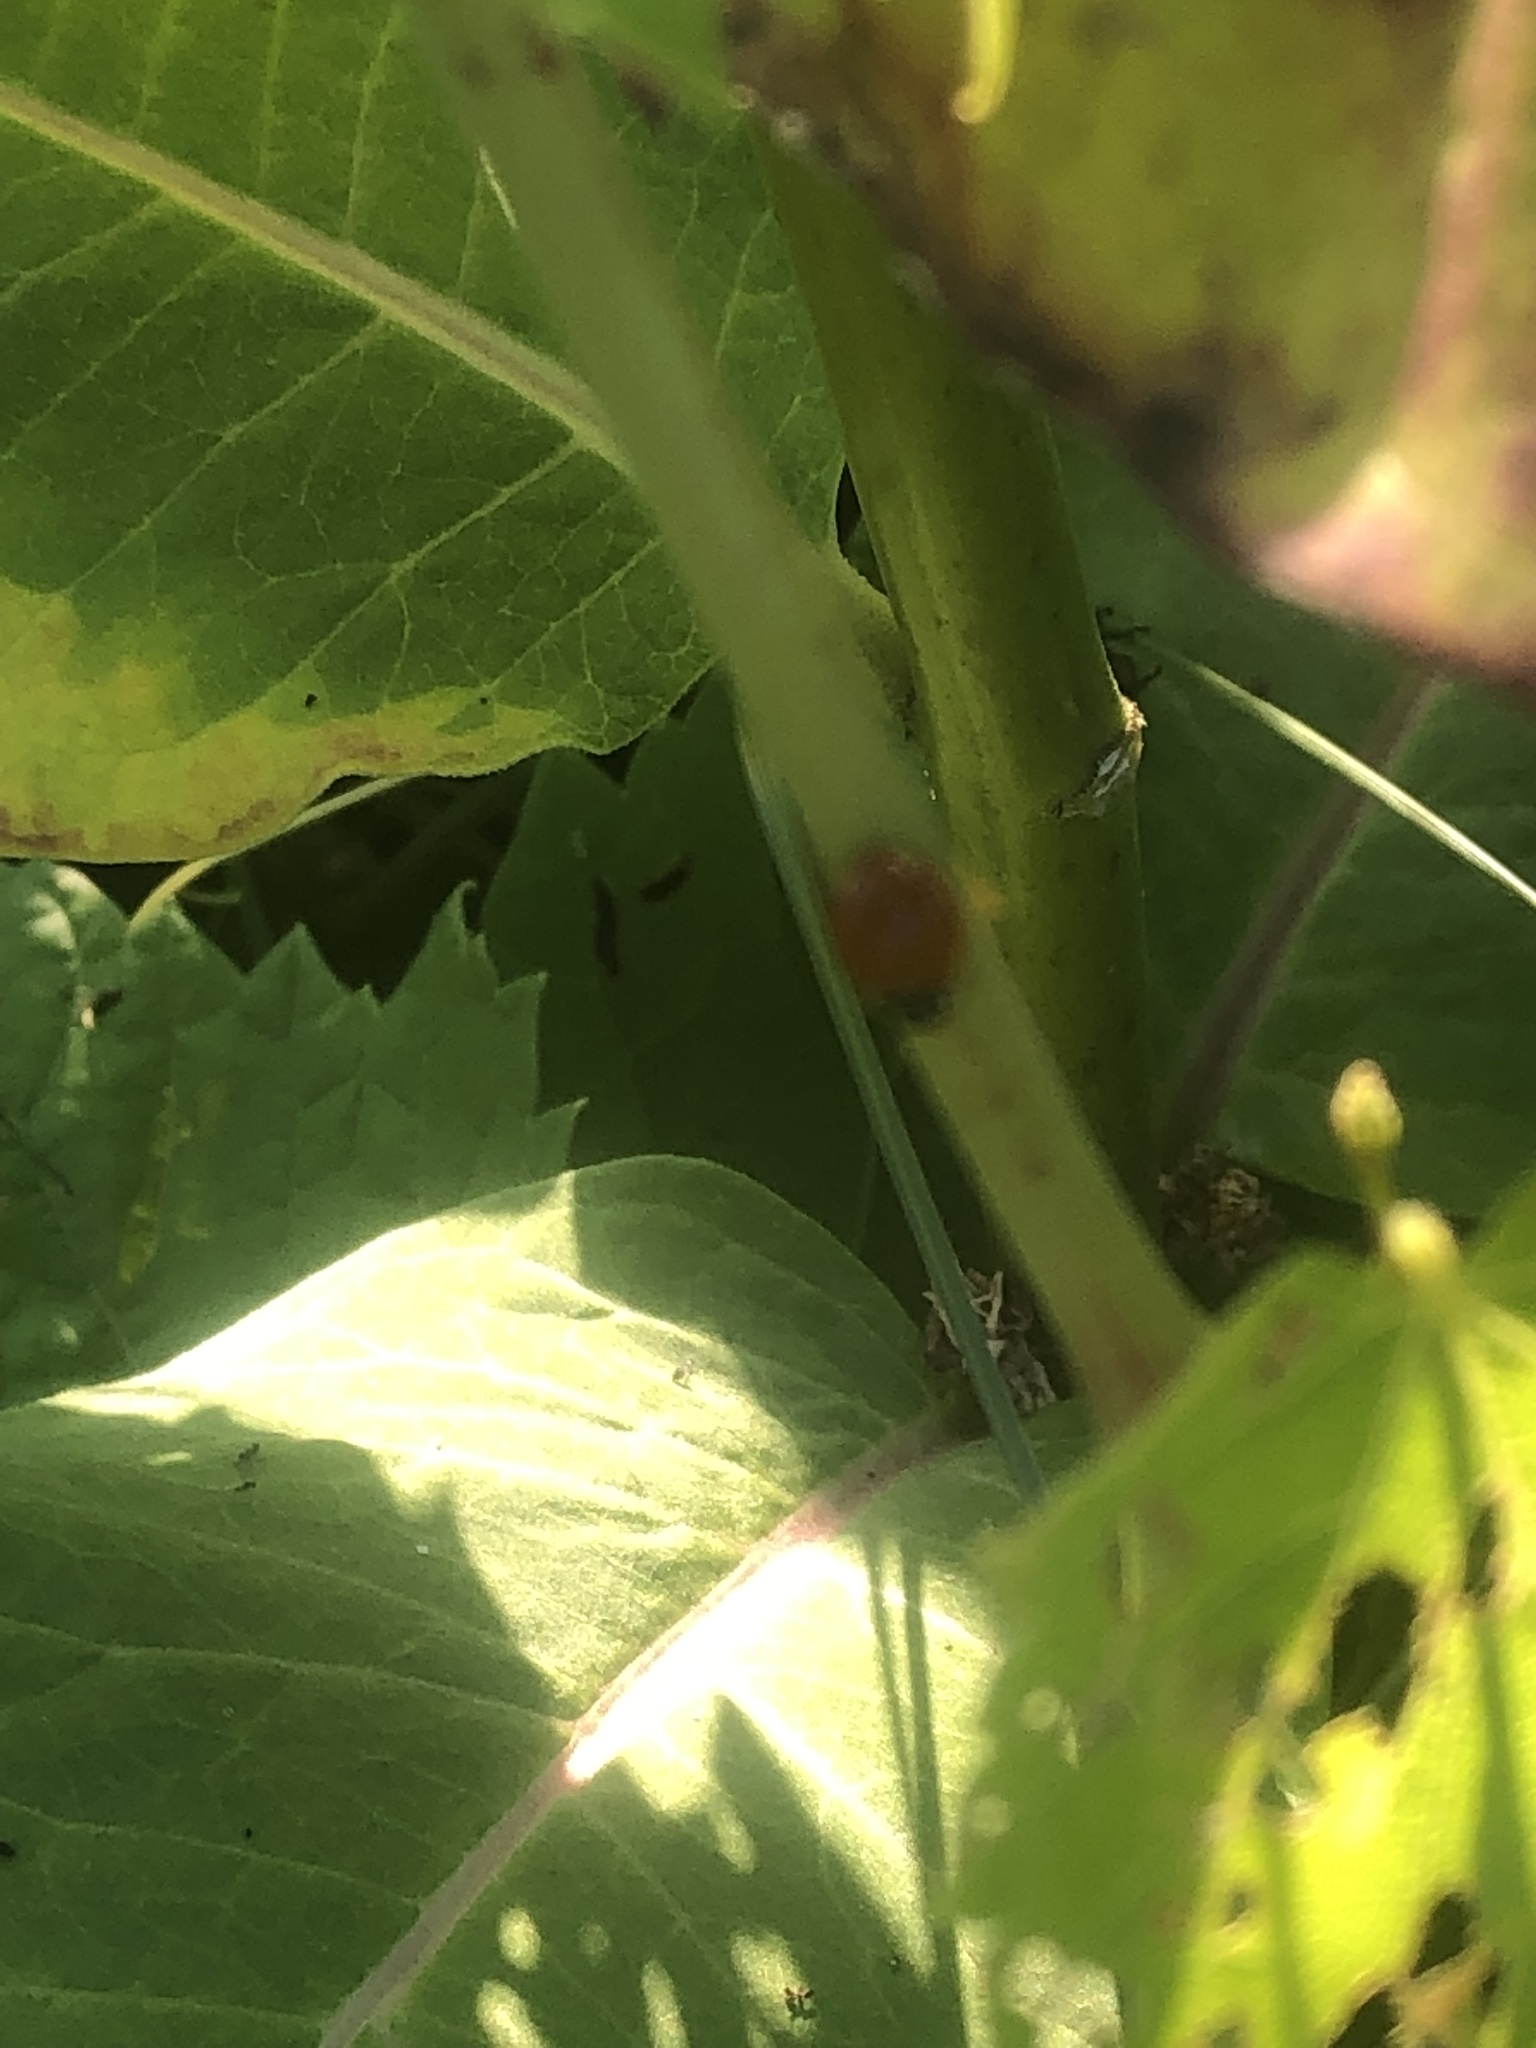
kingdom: Animalia
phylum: Arthropoda
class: Insecta
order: Coleoptera
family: Coccinellidae
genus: Cycloneda
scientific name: Cycloneda munda
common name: Polished lady beetle
